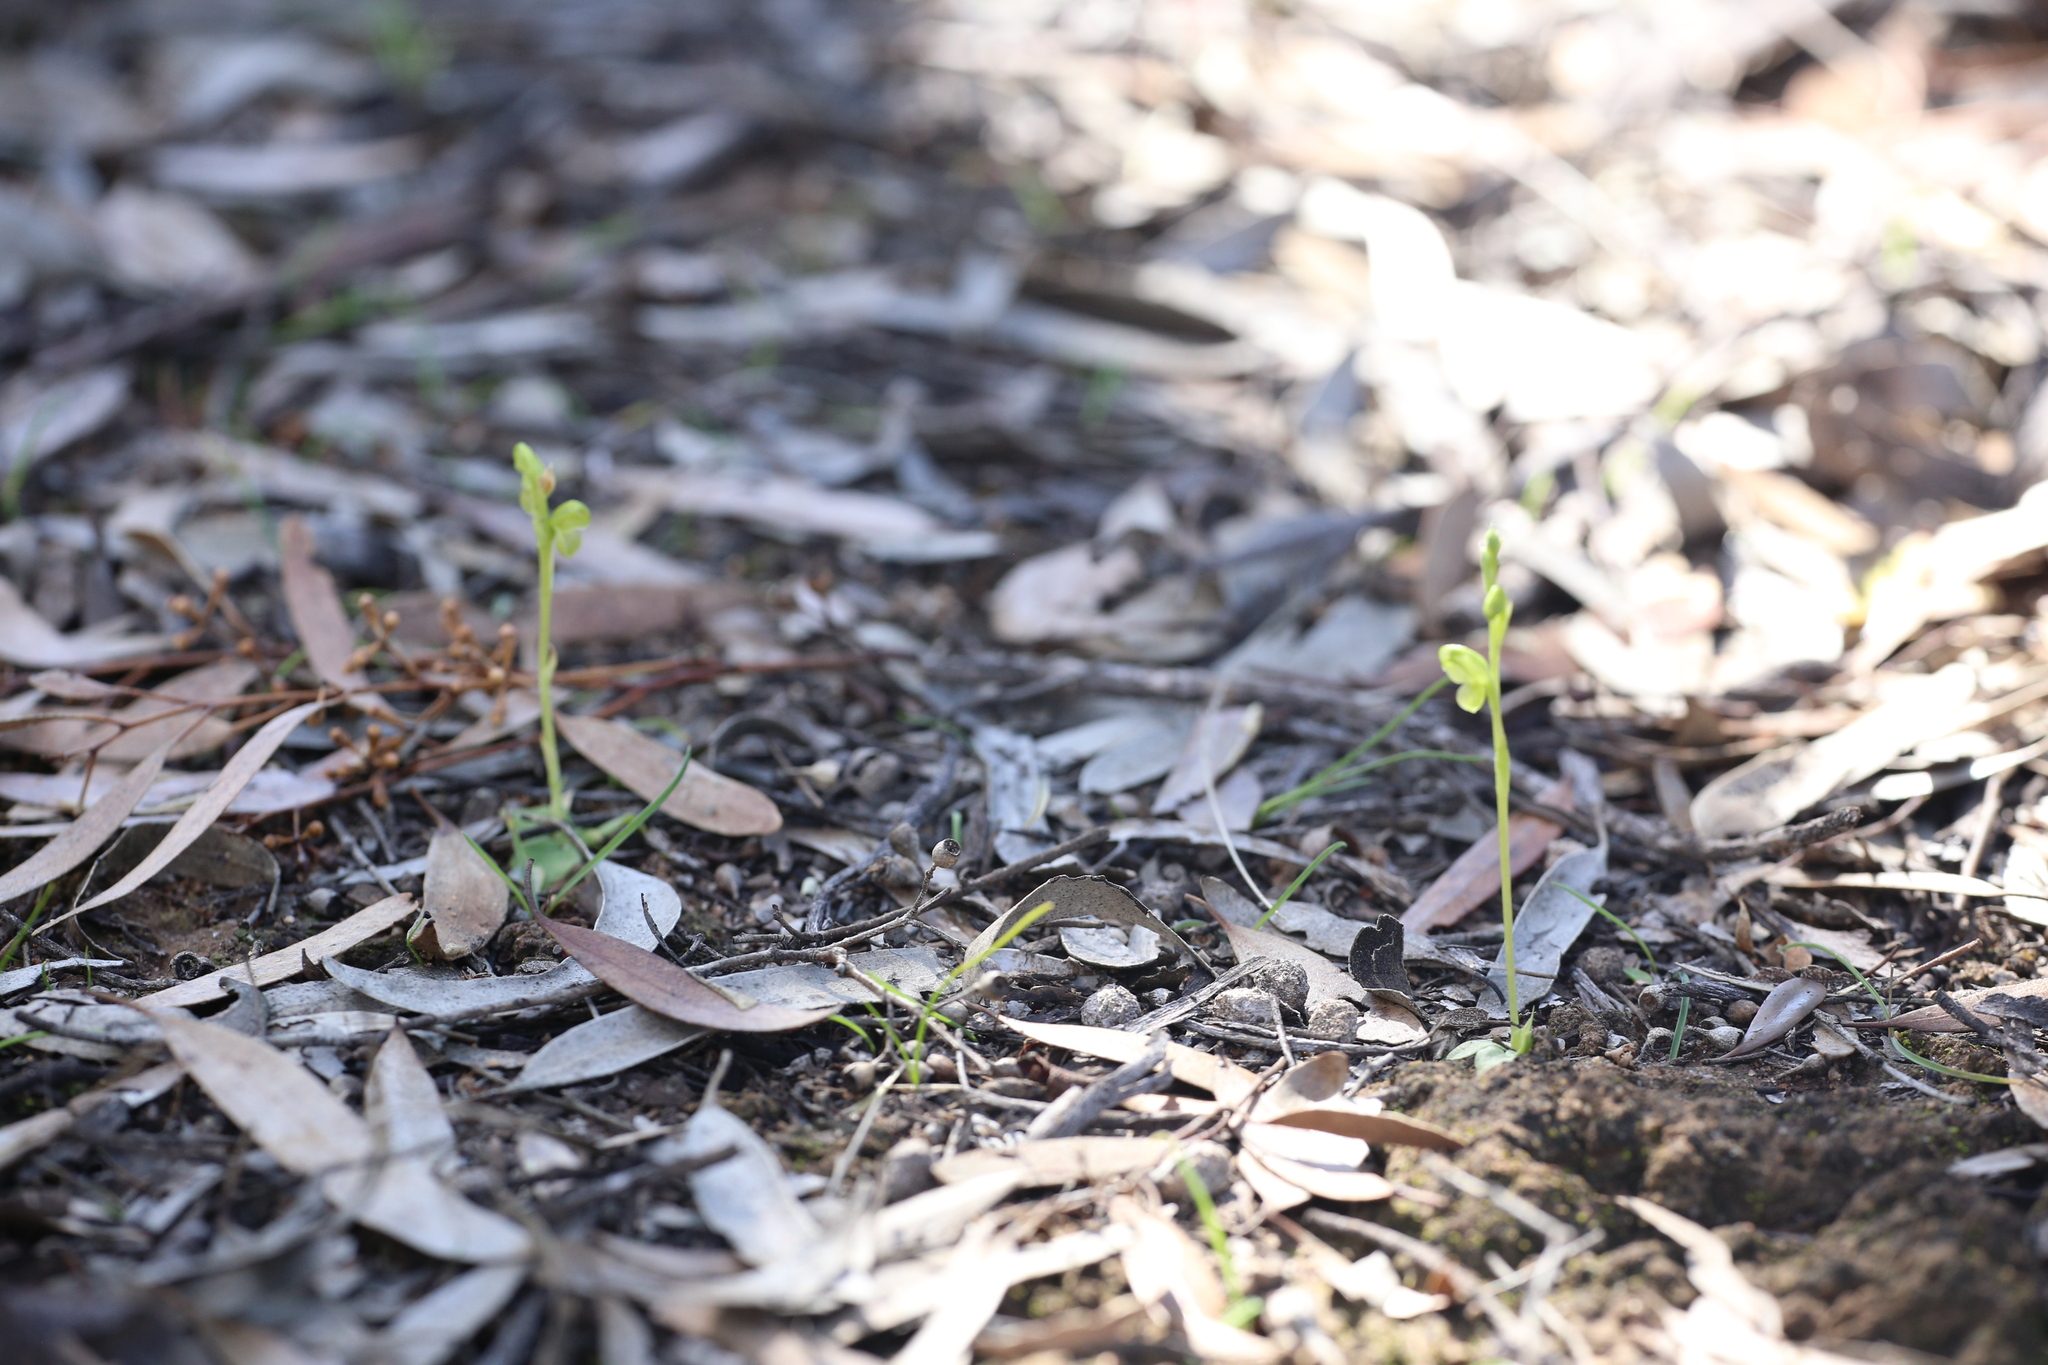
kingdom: Plantae
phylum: Tracheophyta
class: Liliopsida
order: Asparagales
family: Orchidaceae
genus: Pterostylis
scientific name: Pterostylis mutica
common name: Midget greenhood
